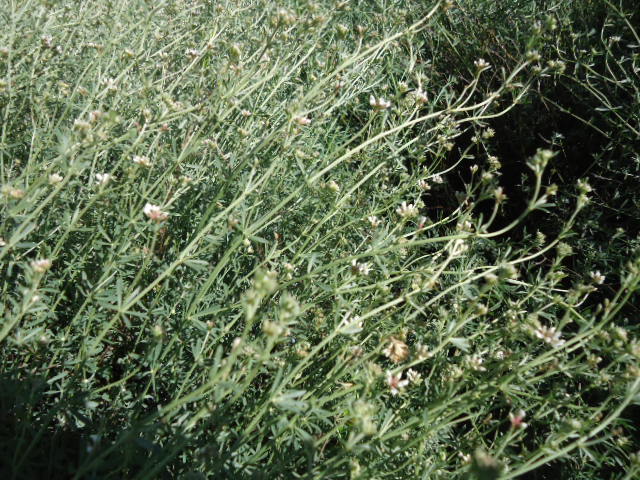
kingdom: Plantae
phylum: Tracheophyta
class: Magnoliopsida
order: Fabales
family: Fabaceae
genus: Lotus
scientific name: Lotus dorycnium
